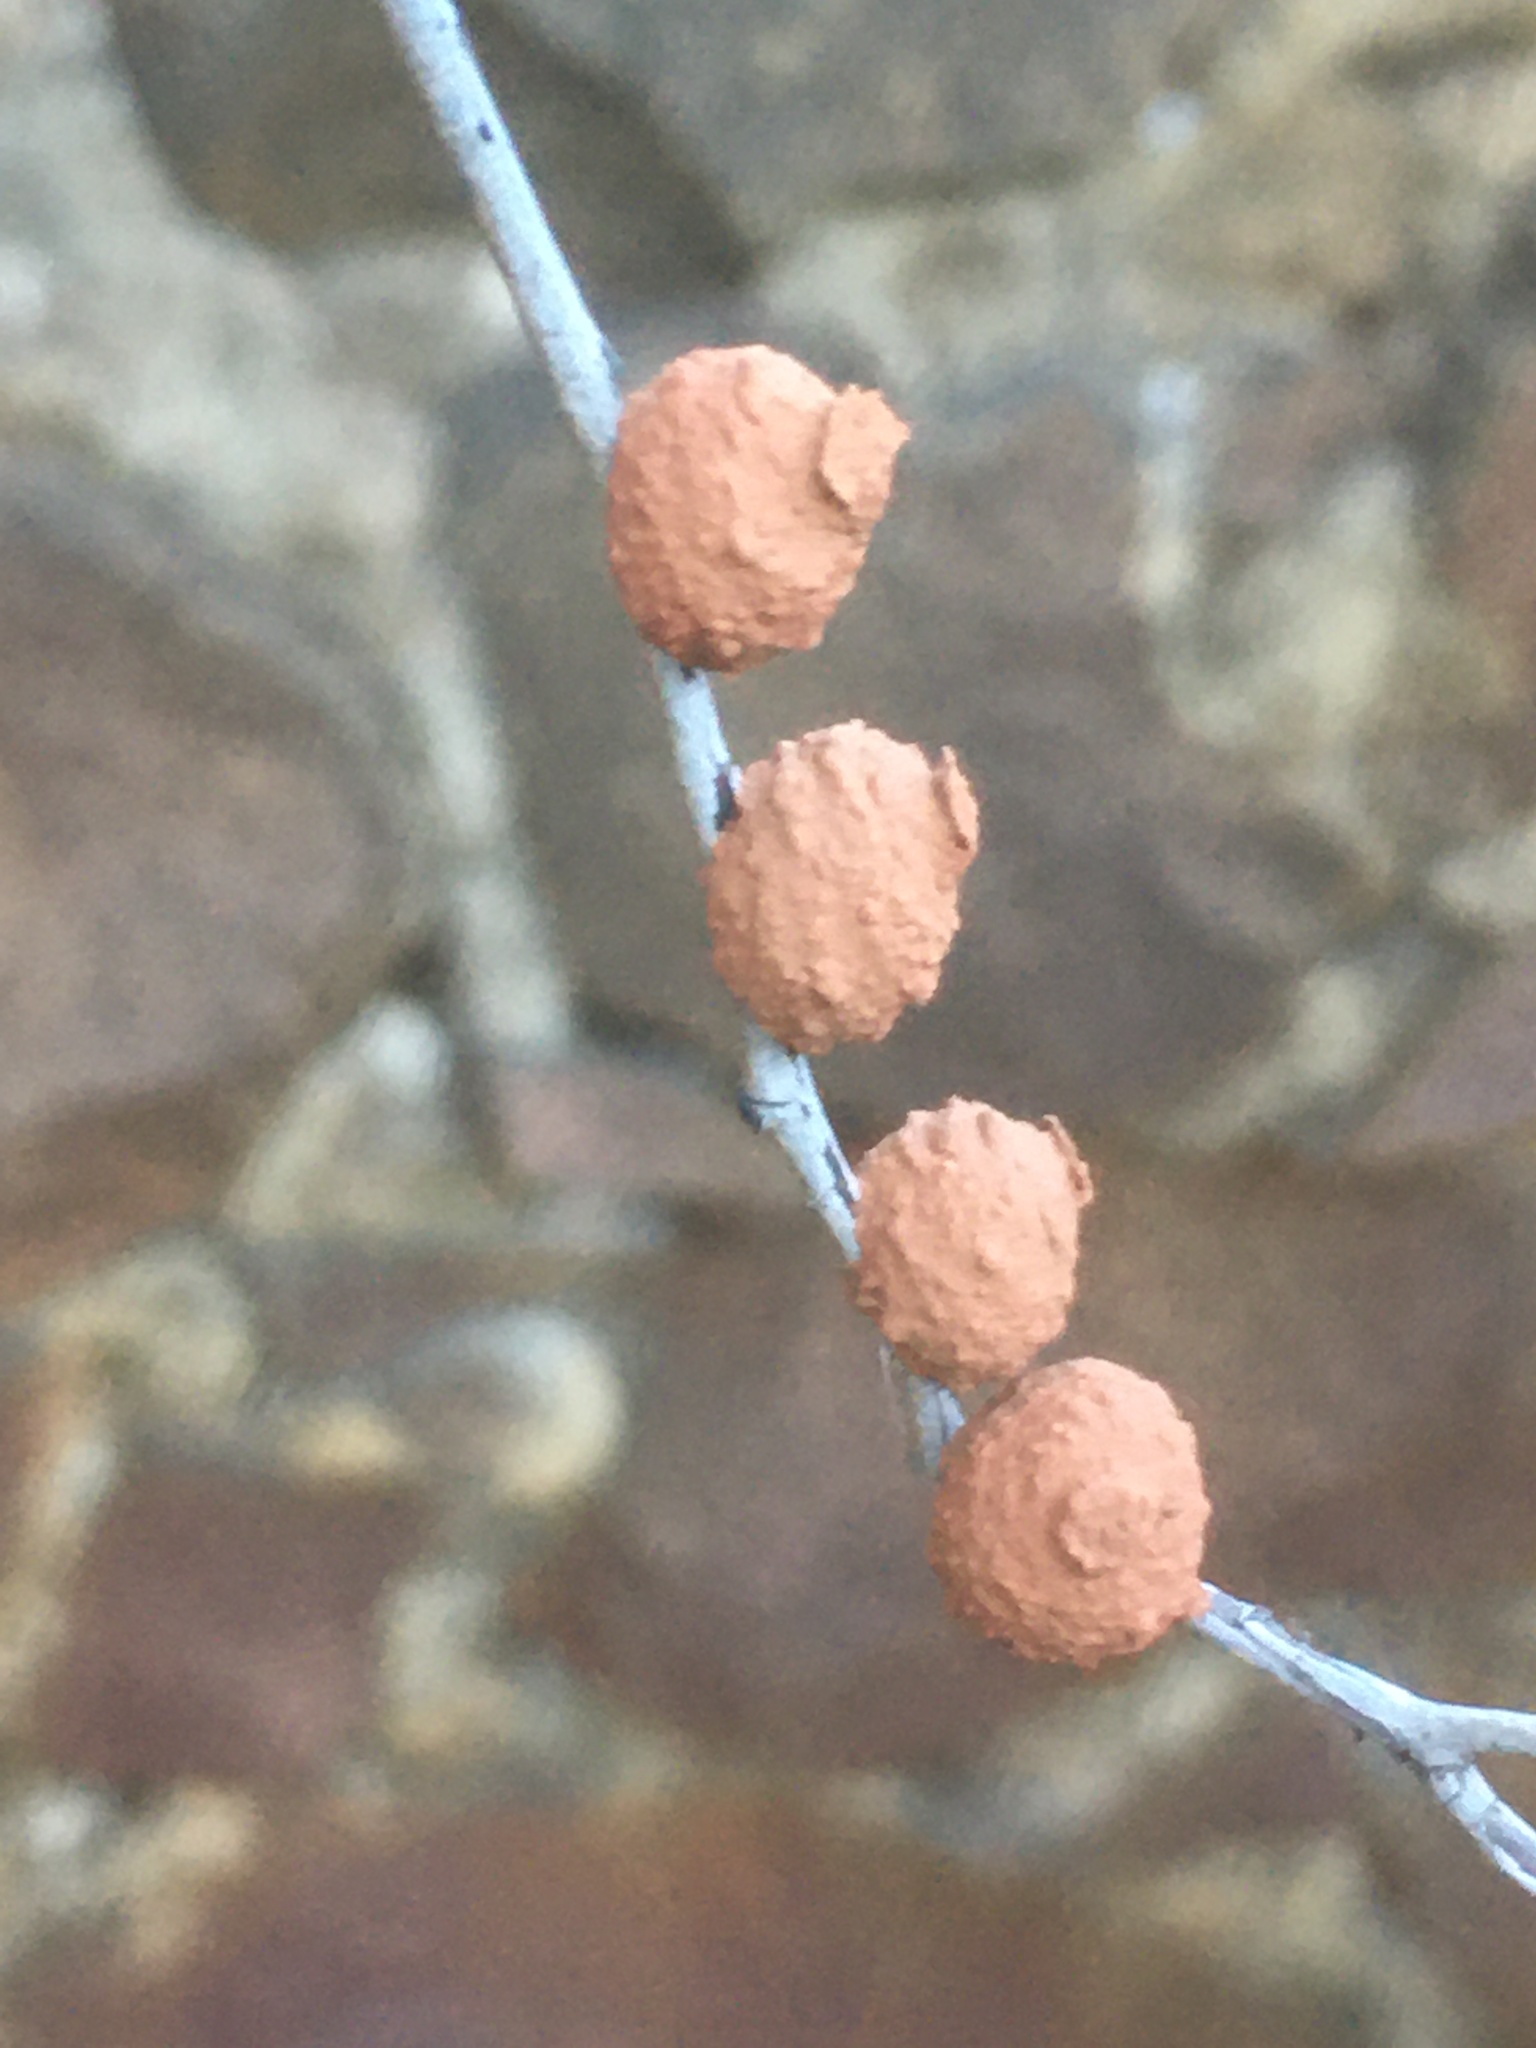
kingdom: Animalia
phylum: Arthropoda
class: Insecta
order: Hymenoptera
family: Vespidae
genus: Eumenes
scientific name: Eumenes
